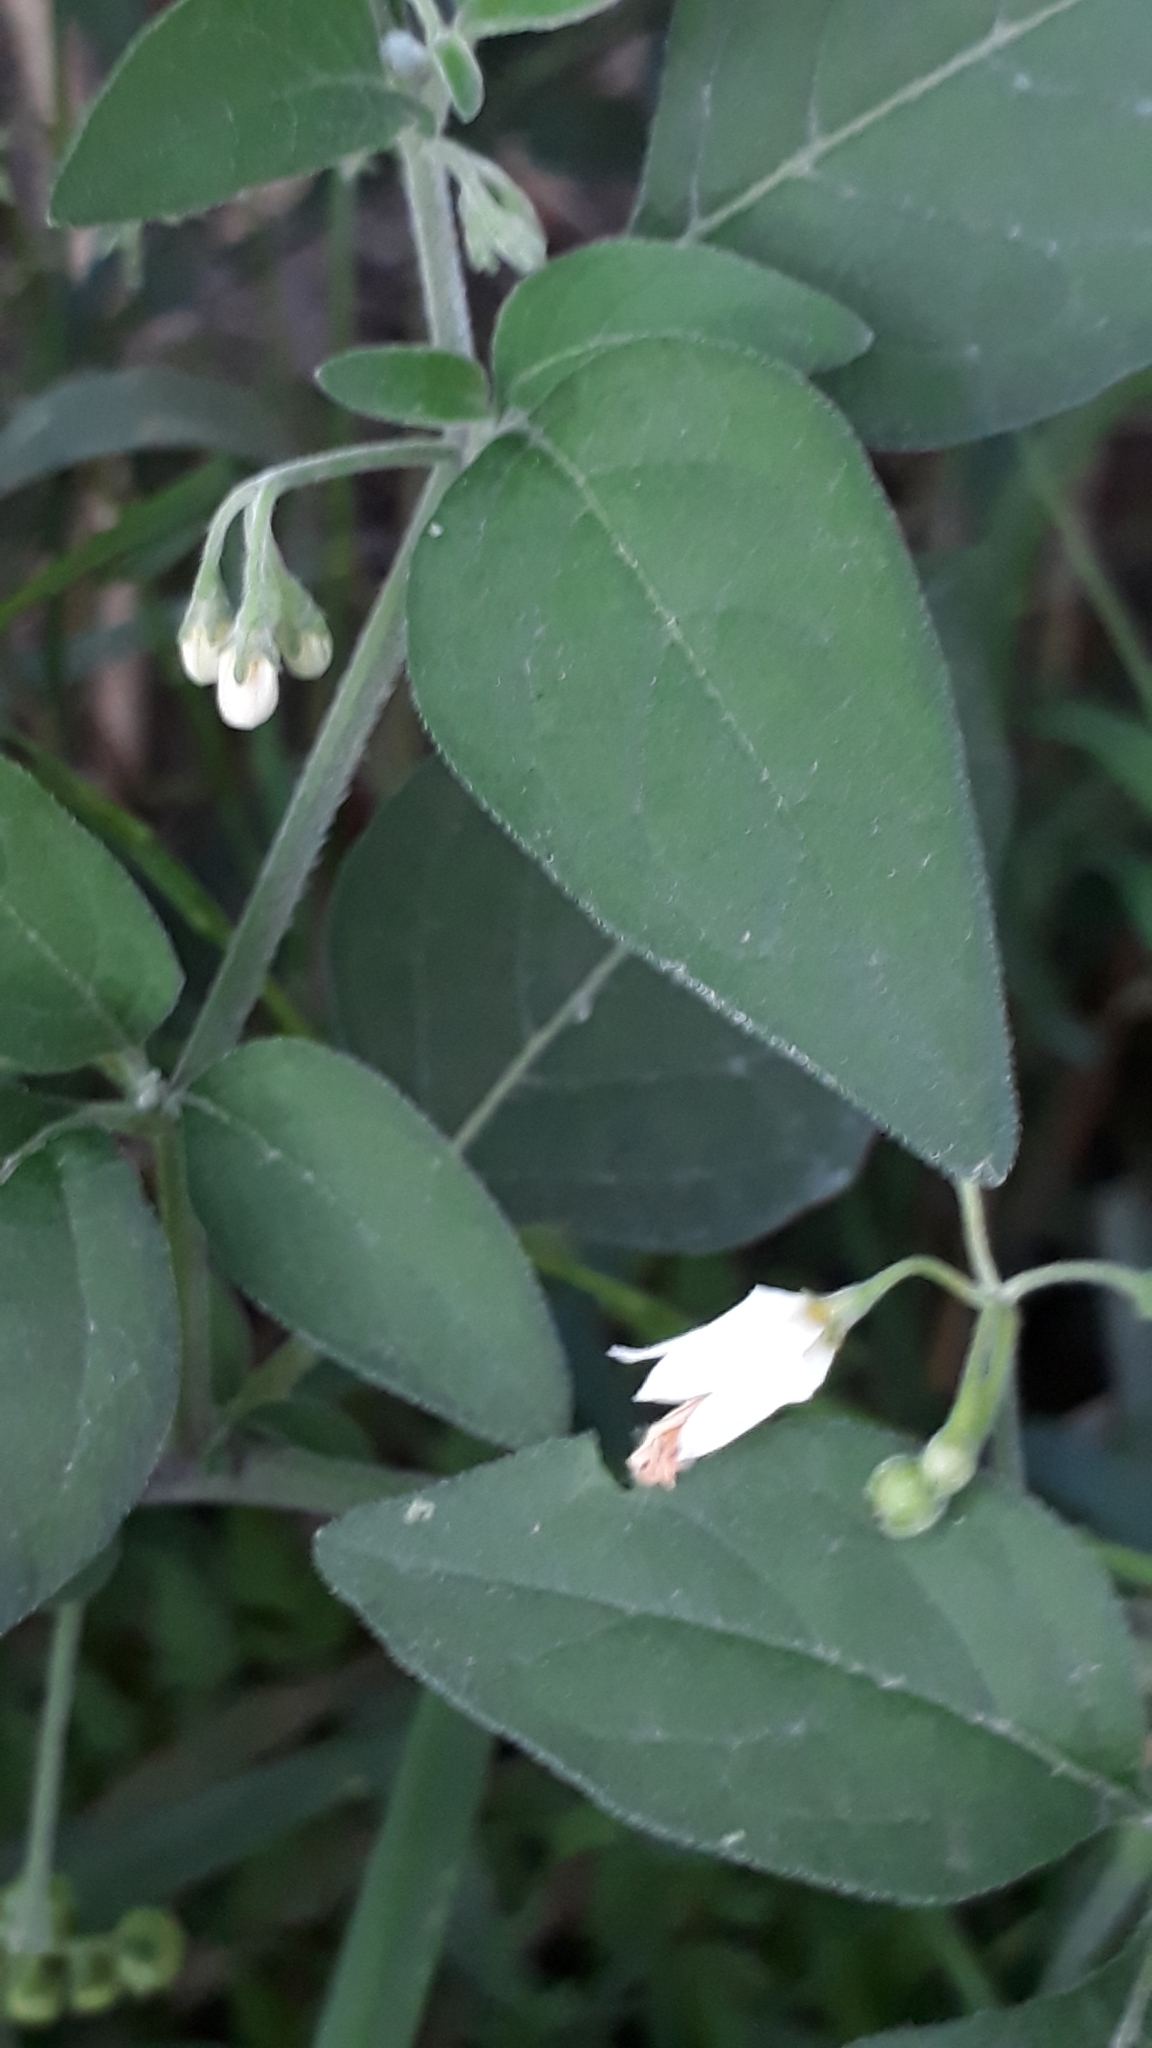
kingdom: Plantae
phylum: Tracheophyta
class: Magnoliopsida
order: Solanales
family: Solanaceae
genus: Solanum
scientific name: Solanum chenopodioides
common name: Tall nightshade
